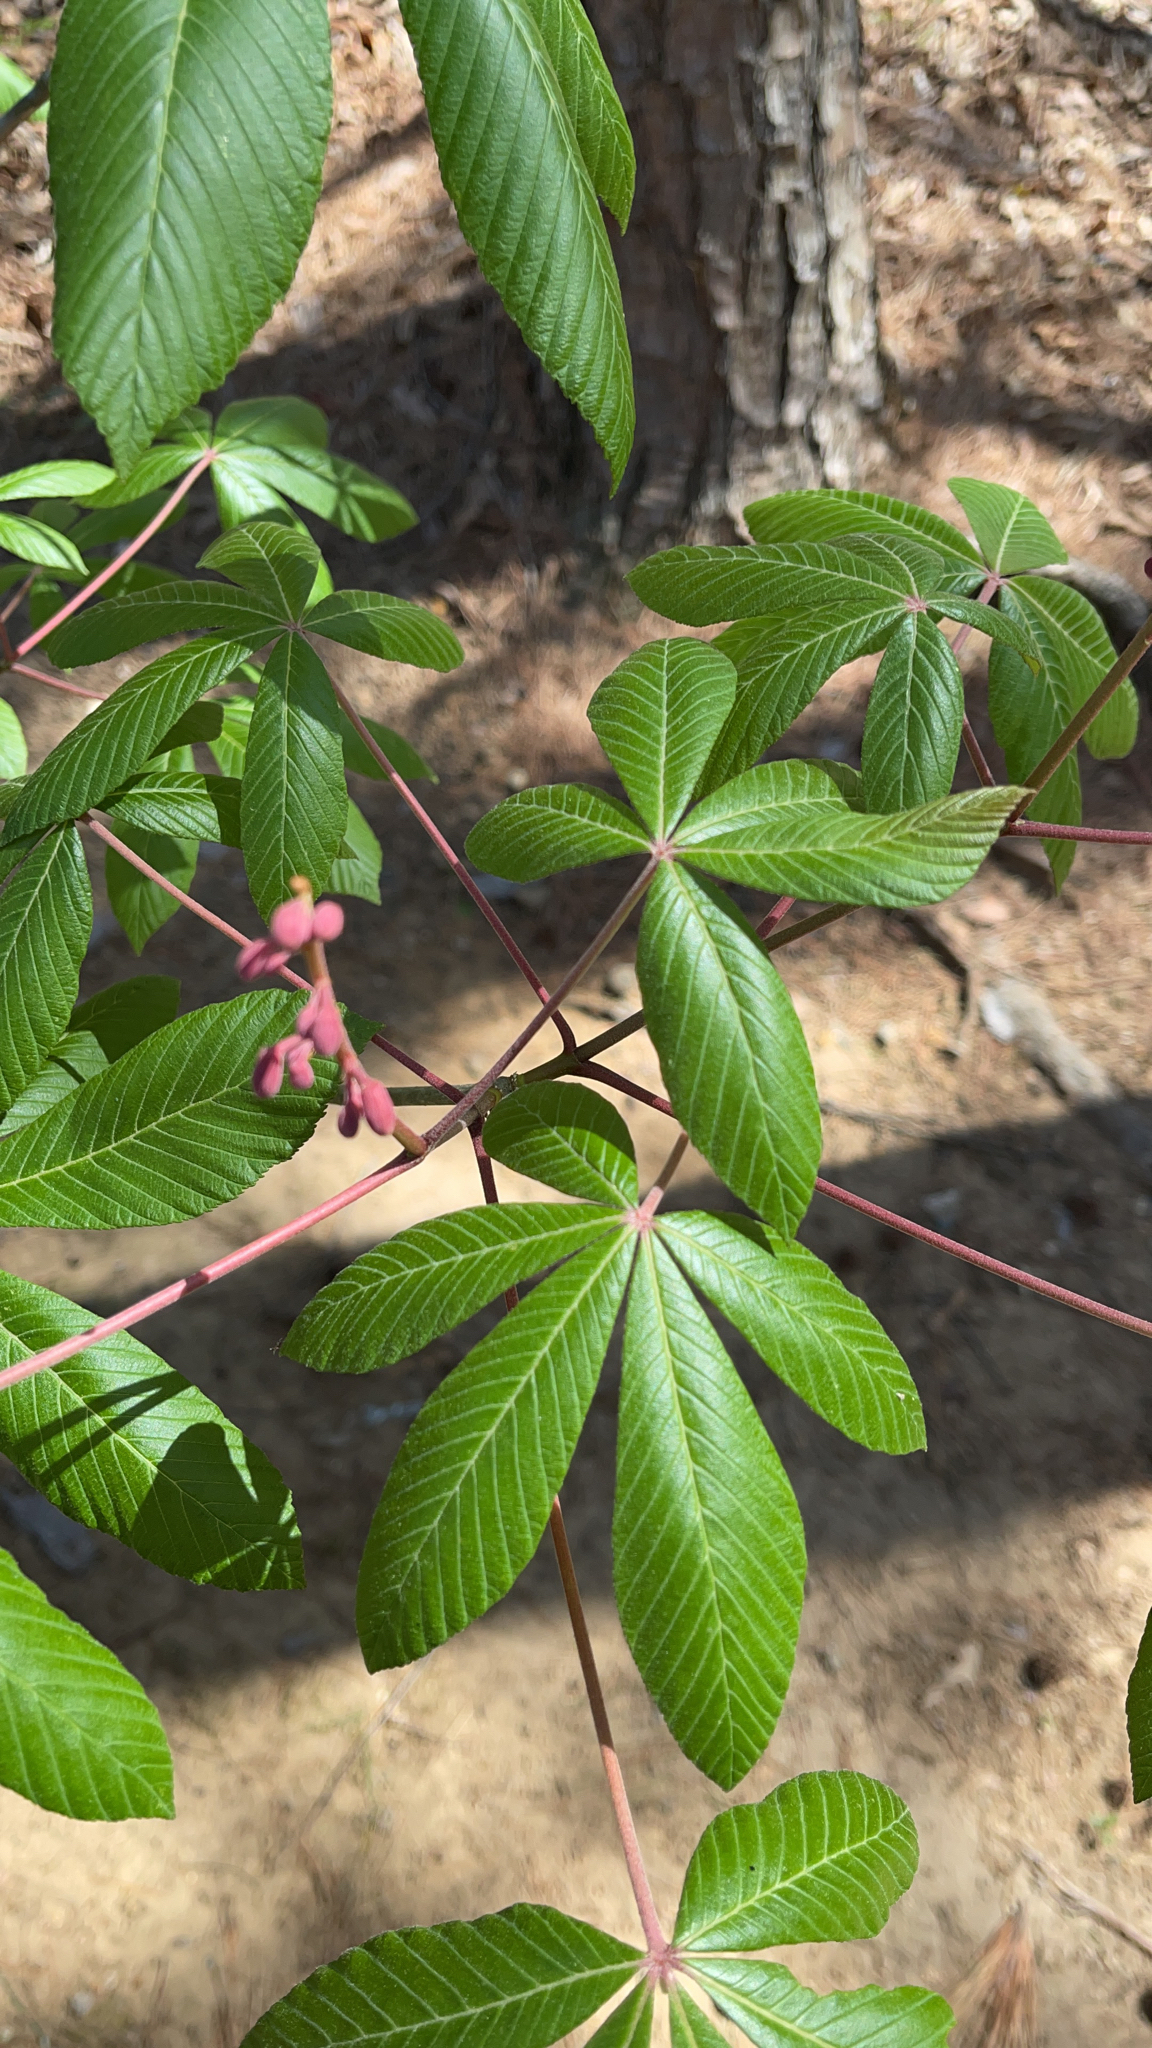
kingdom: Plantae
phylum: Tracheophyta
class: Magnoliopsida
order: Sapindales
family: Sapindaceae
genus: Aesculus
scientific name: Aesculus pavia
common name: Red buckeye
